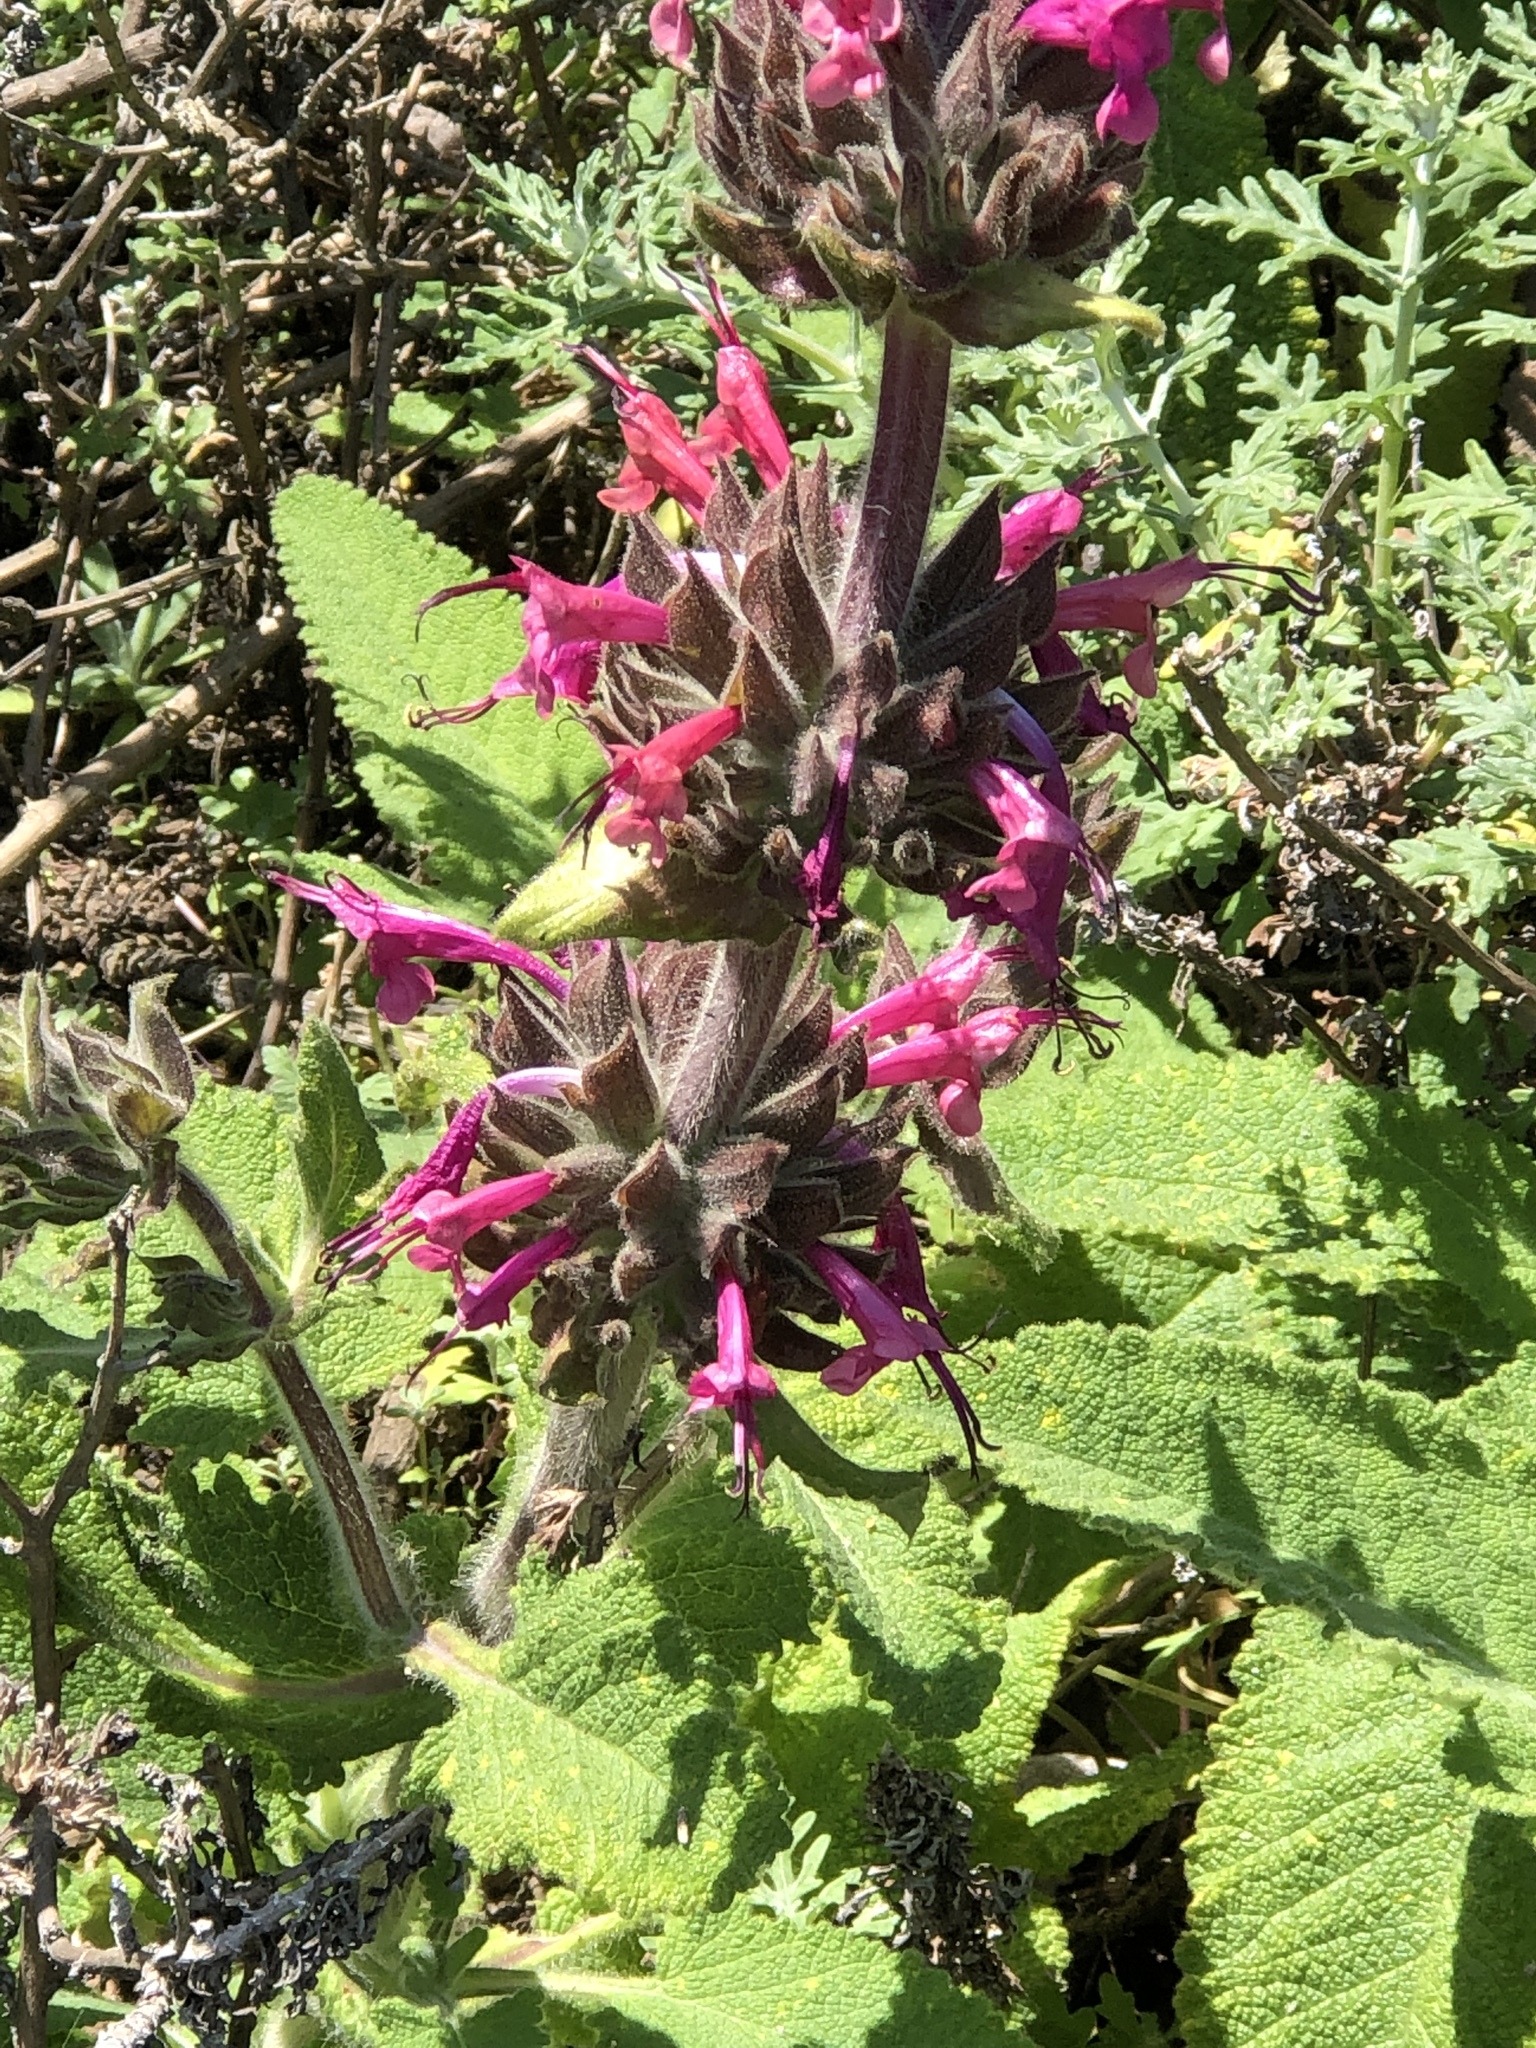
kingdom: Plantae
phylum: Tracheophyta
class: Magnoliopsida
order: Lamiales
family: Lamiaceae
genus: Salvia
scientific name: Salvia spathacea
